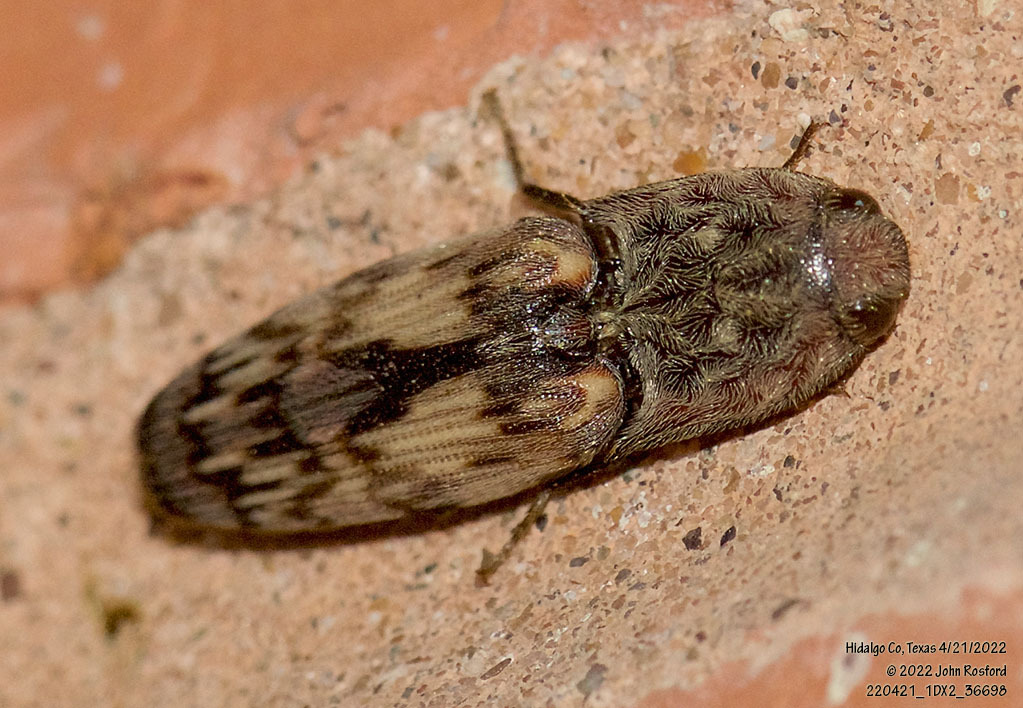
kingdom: Animalia
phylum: Arthropoda
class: Insecta
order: Coleoptera
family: Elateridae
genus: Pherhimius
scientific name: Pherhimius fascicularis
